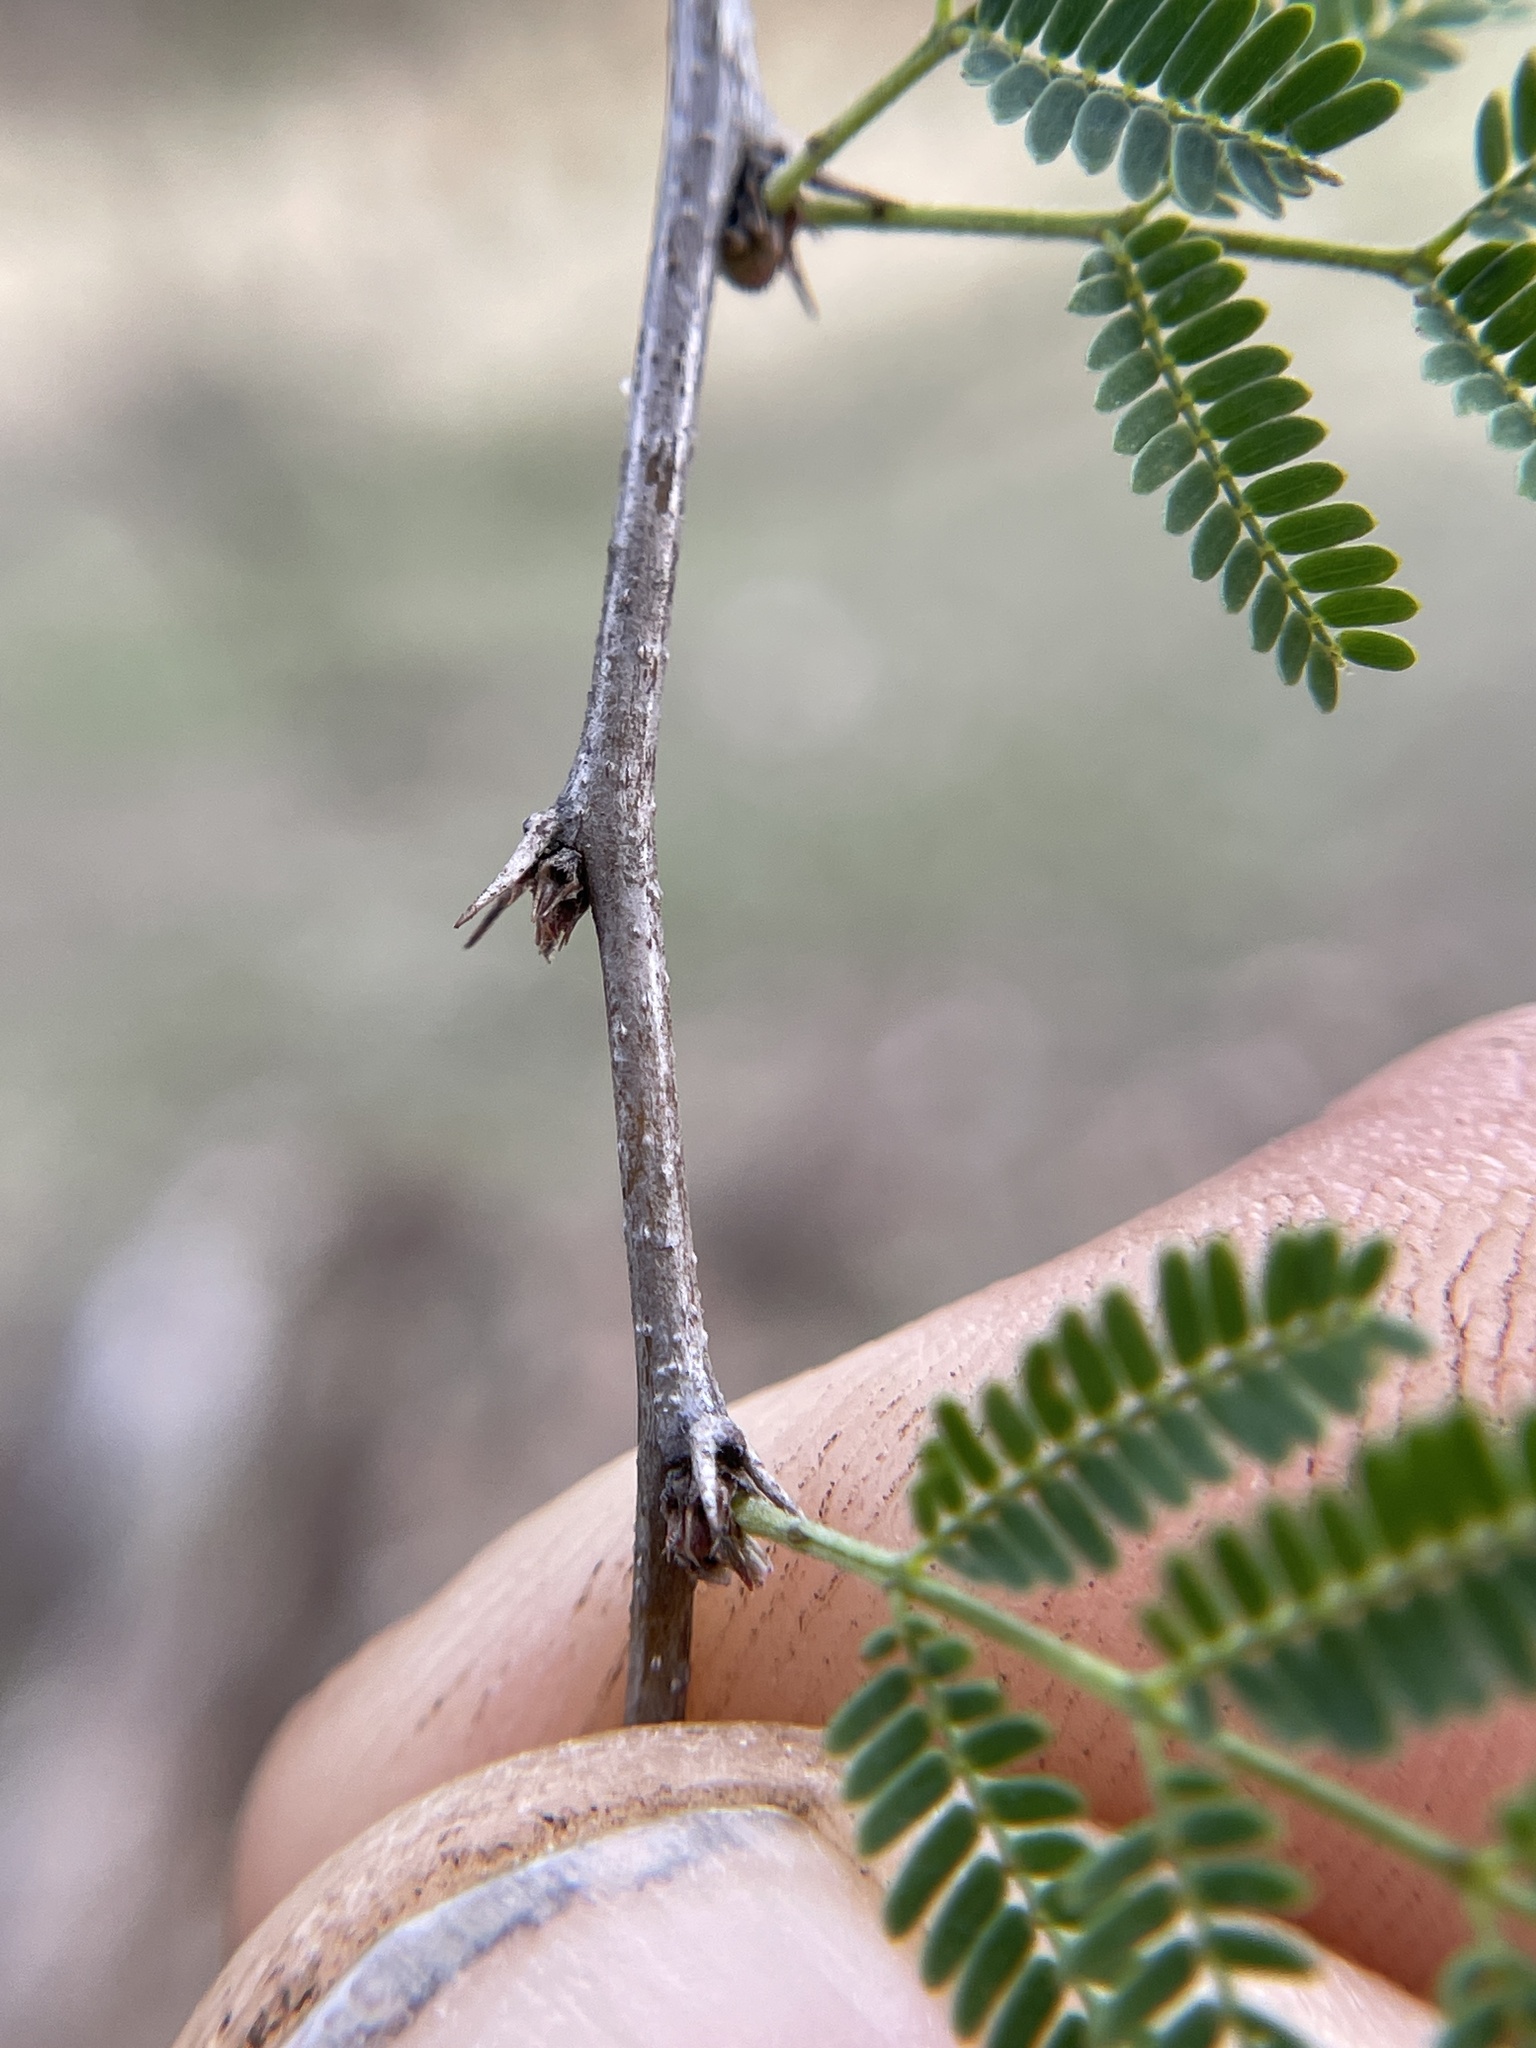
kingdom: Plantae
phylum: Tracheophyta
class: Magnoliopsida
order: Fabales
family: Fabaceae
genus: Vachellia
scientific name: Vachellia farnesiana
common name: Sweet acacia
